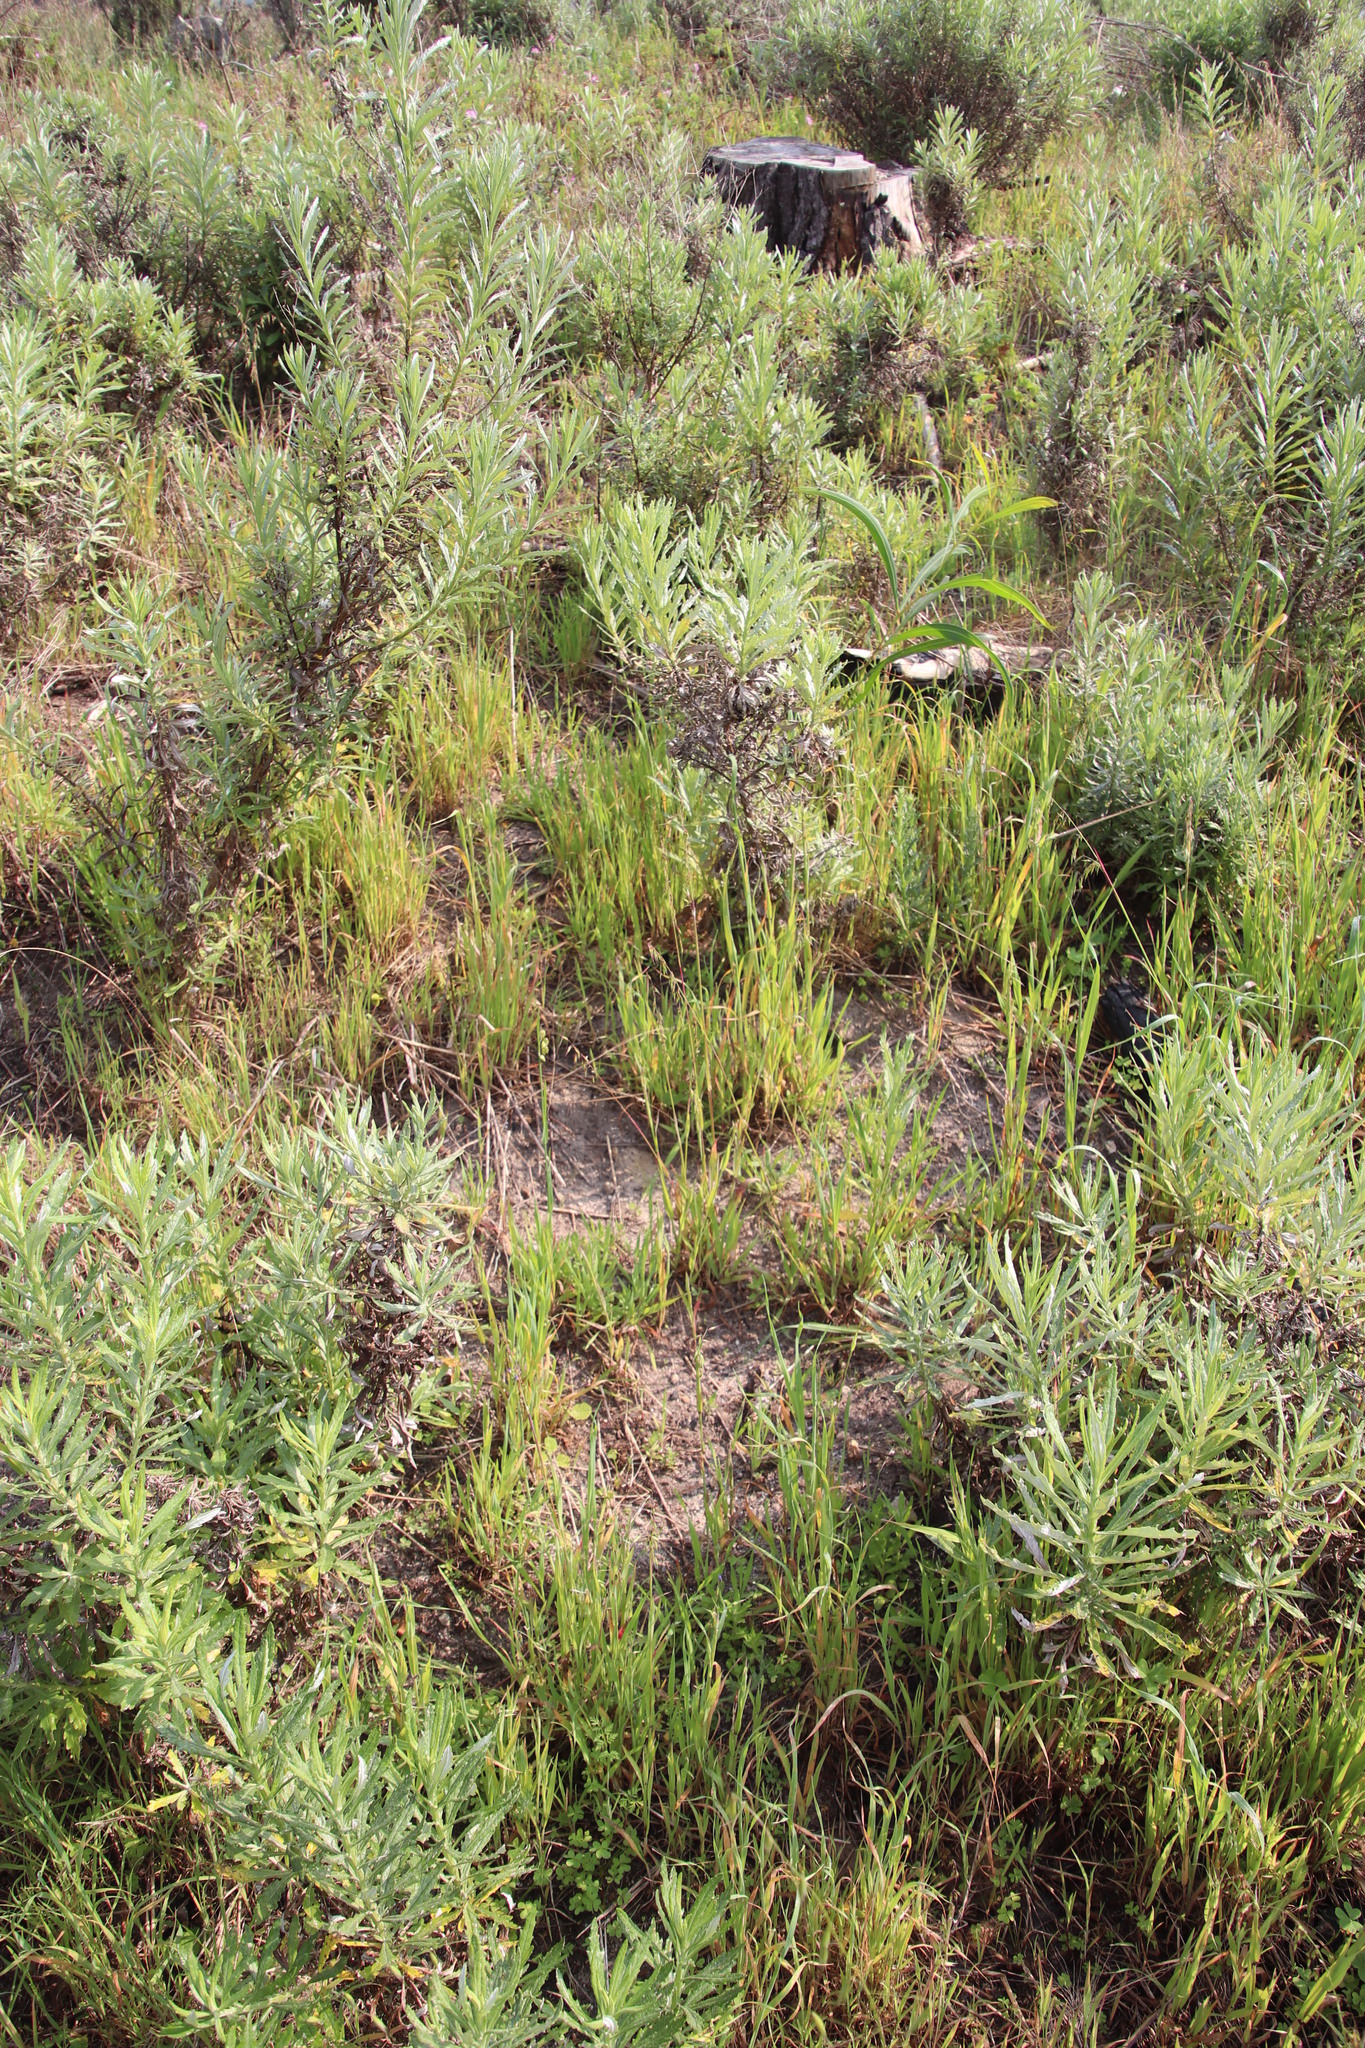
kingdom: Plantae
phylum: Tracheophyta
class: Liliopsida
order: Poales
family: Poaceae
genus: Ehrharta
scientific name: Ehrharta longiflora
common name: Longflowered veldtgrass
